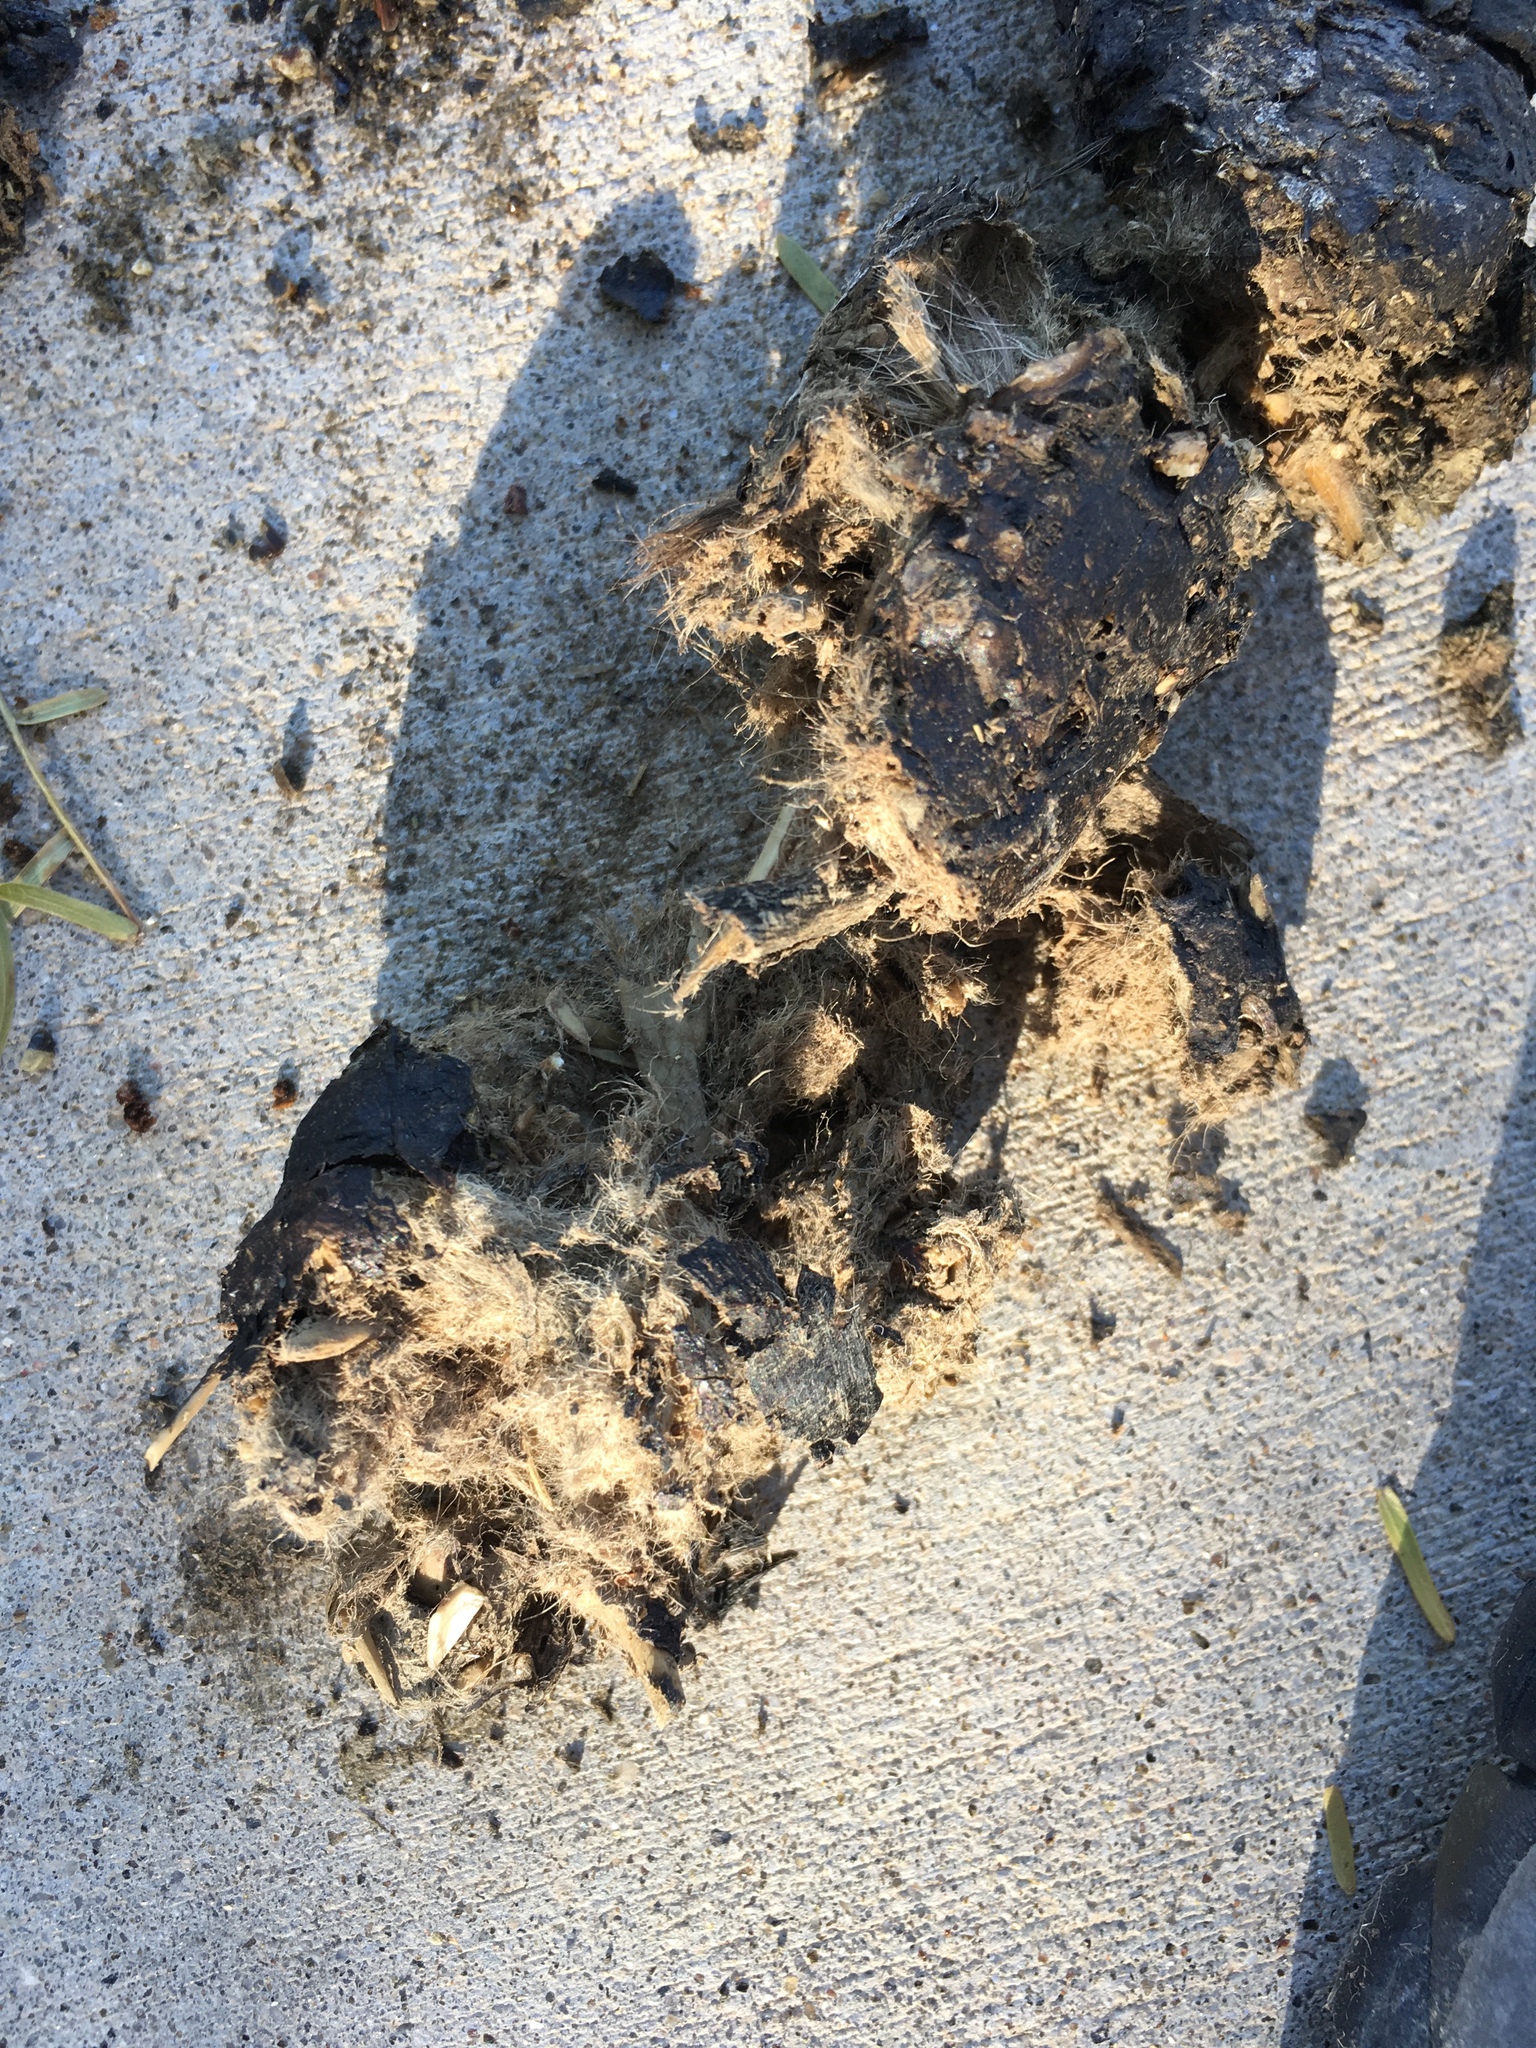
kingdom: Animalia
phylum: Chordata
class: Mammalia
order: Carnivora
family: Canidae
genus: Canis
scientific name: Canis latrans
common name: Coyote
